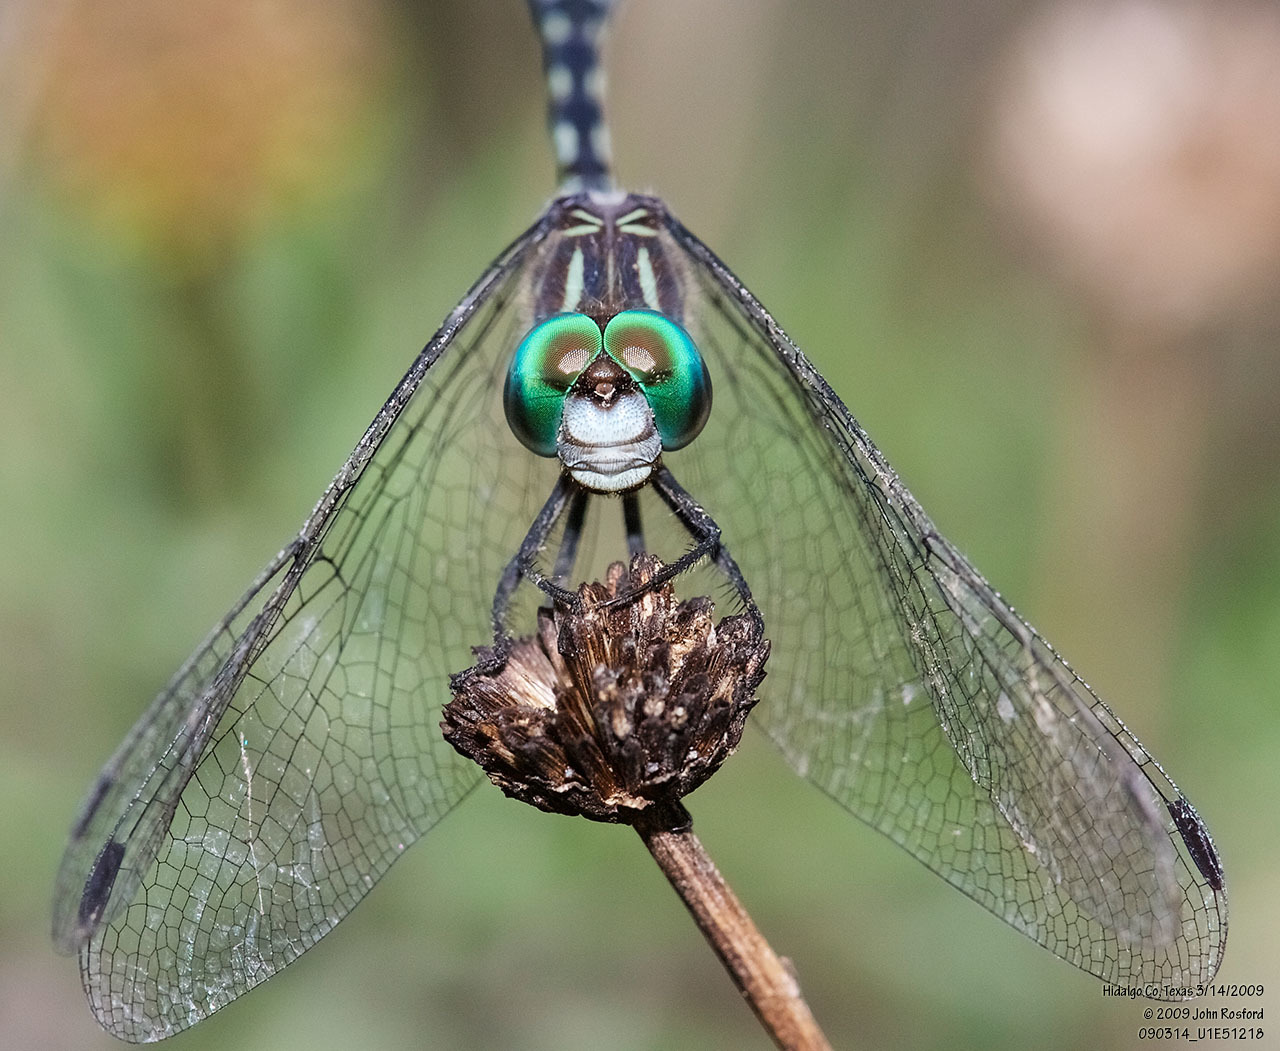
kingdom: Animalia
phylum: Arthropoda
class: Insecta
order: Odonata
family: Libellulidae
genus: Micrathyria
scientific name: Micrathyria hagenii
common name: Thornbush dasher
